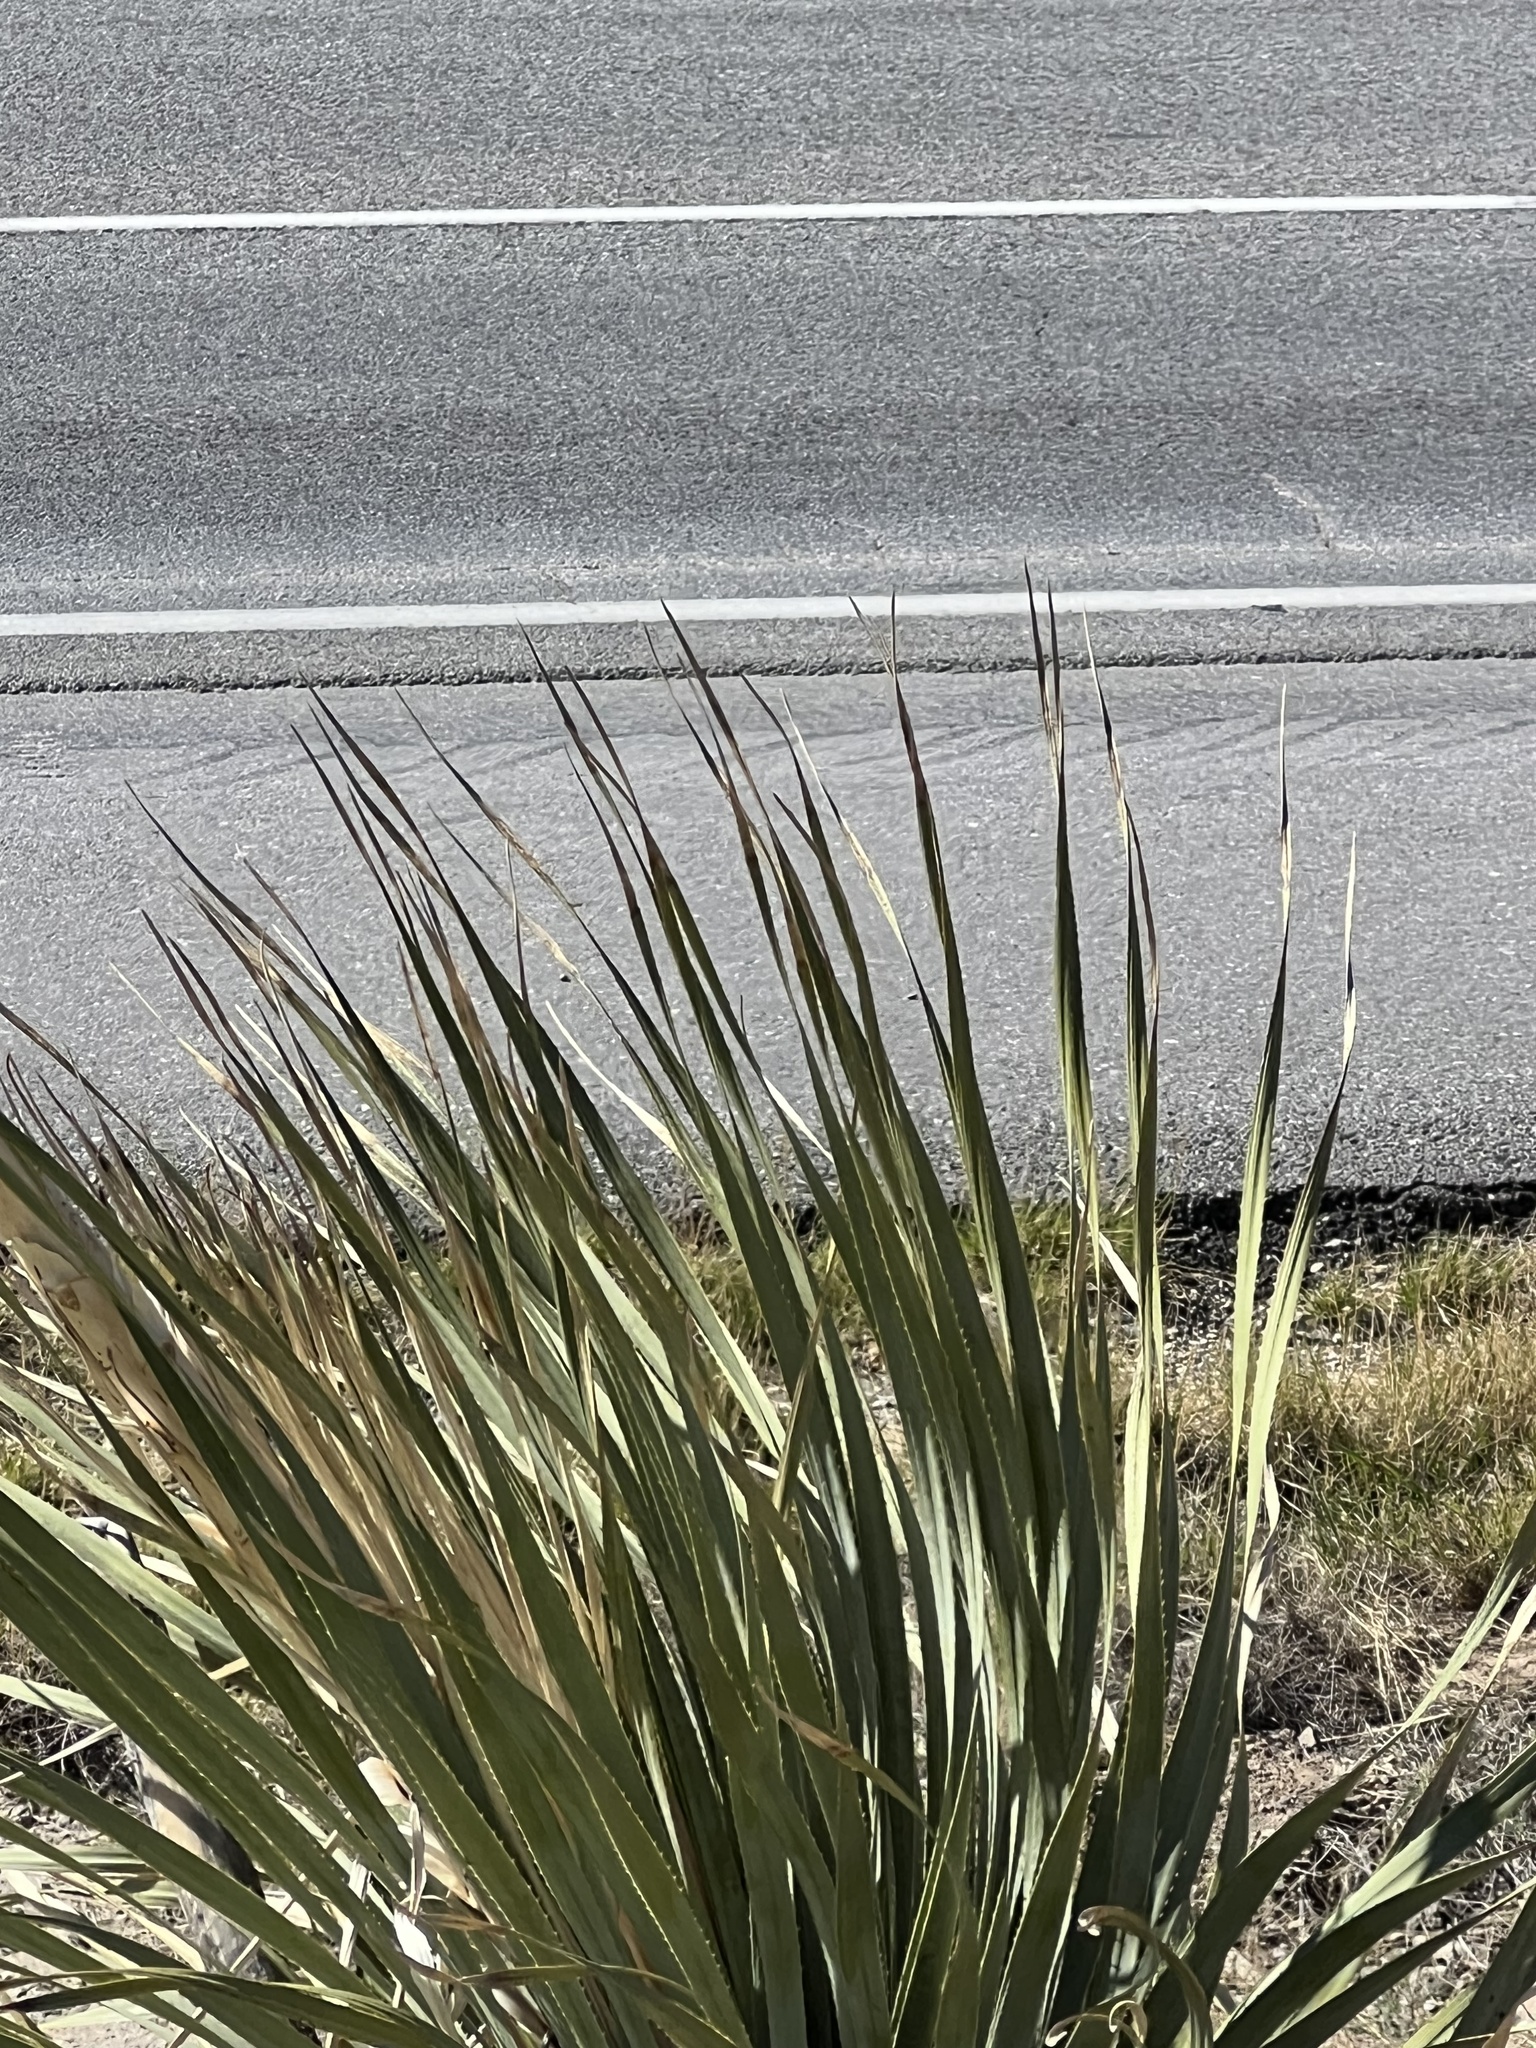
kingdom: Plantae
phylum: Tracheophyta
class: Liliopsida
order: Asparagales
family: Asparagaceae
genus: Dasylirion
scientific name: Dasylirion wheeleri
